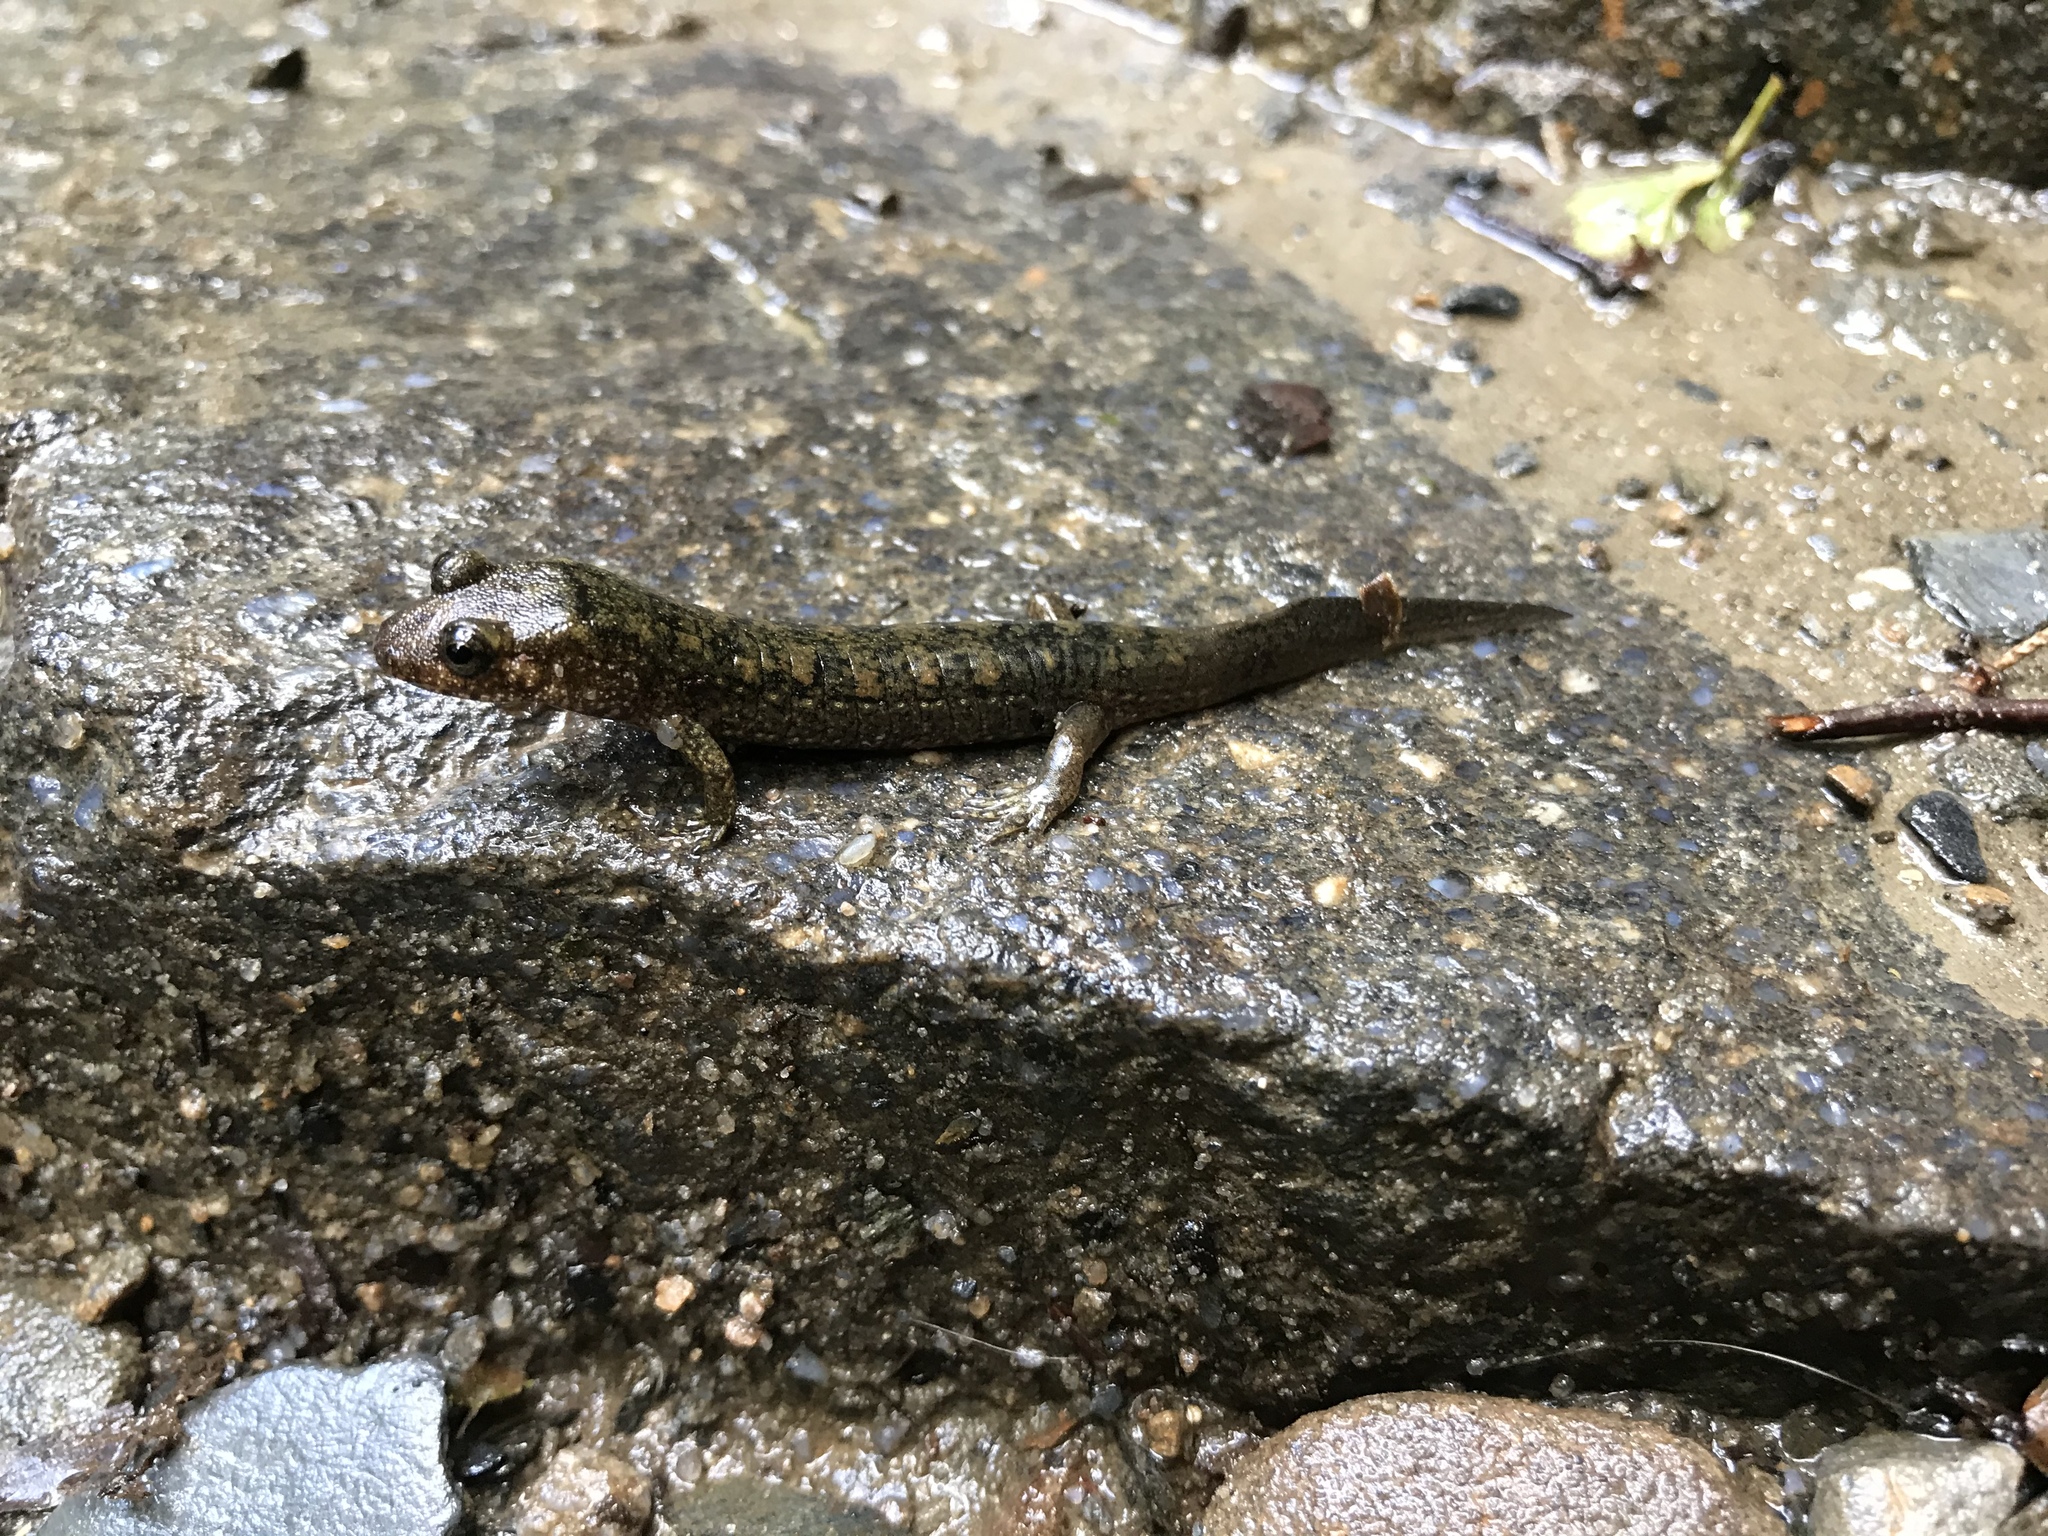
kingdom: Animalia
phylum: Chordata
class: Amphibia
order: Caudata
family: Plethodontidae
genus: Desmognathus
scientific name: Desmognathus
